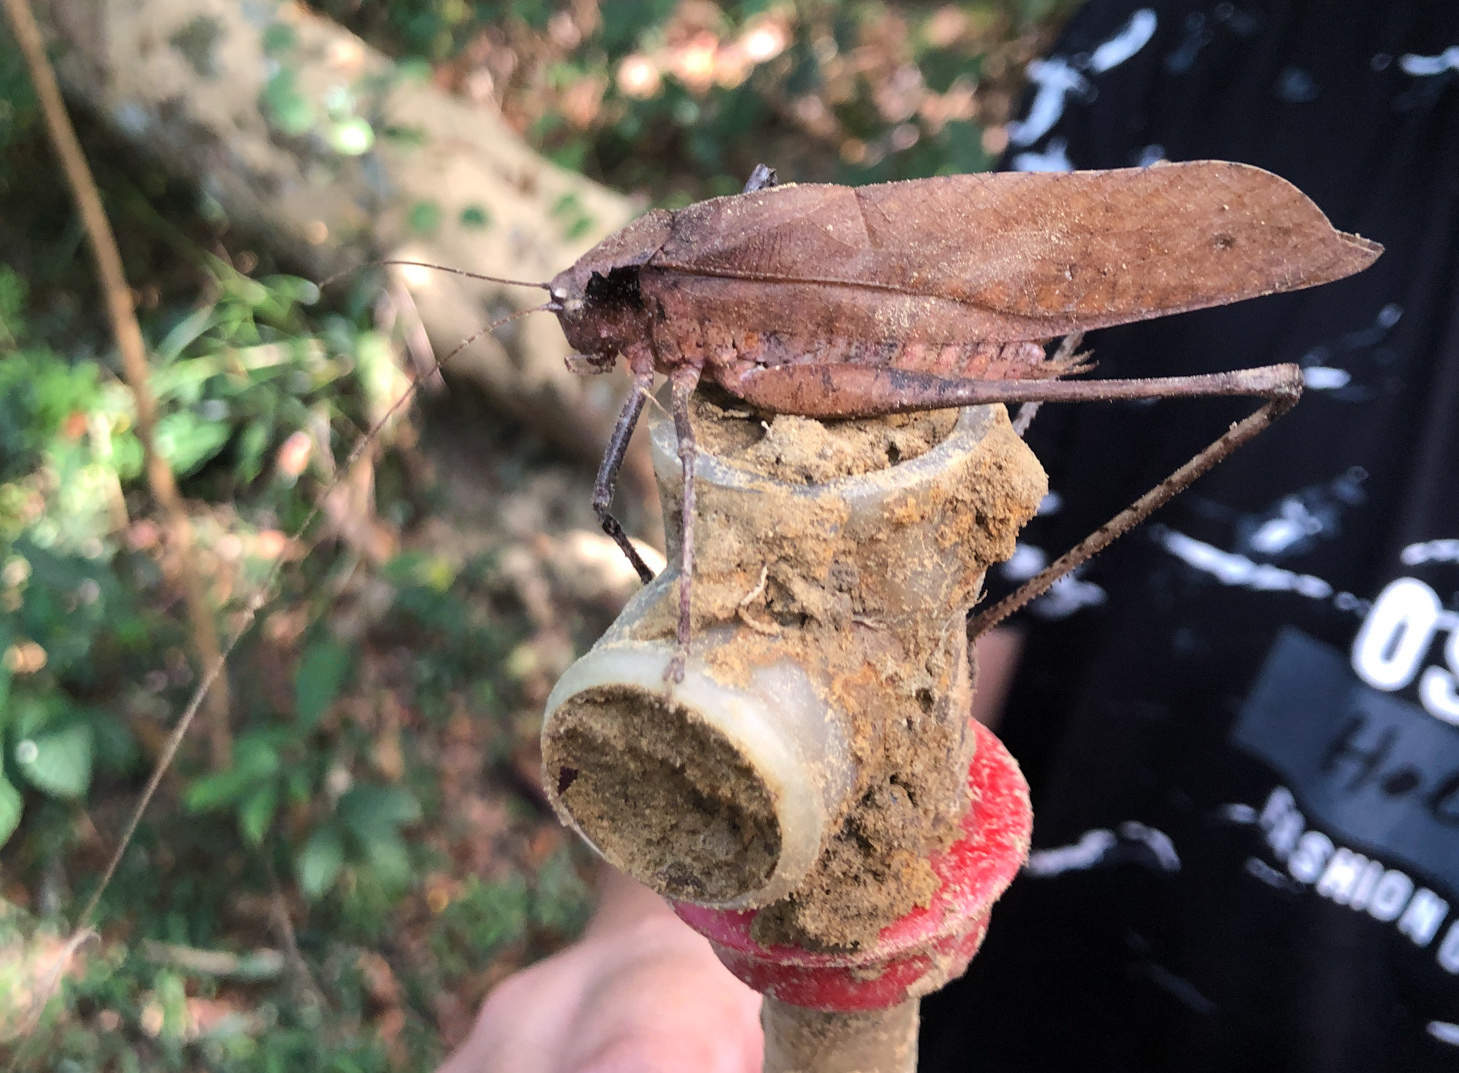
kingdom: Animalia
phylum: Arthropoda
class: Insecta
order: Orthoptera
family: Tettigoniidae
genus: Mecopoda
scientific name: Mecopoda elongata
